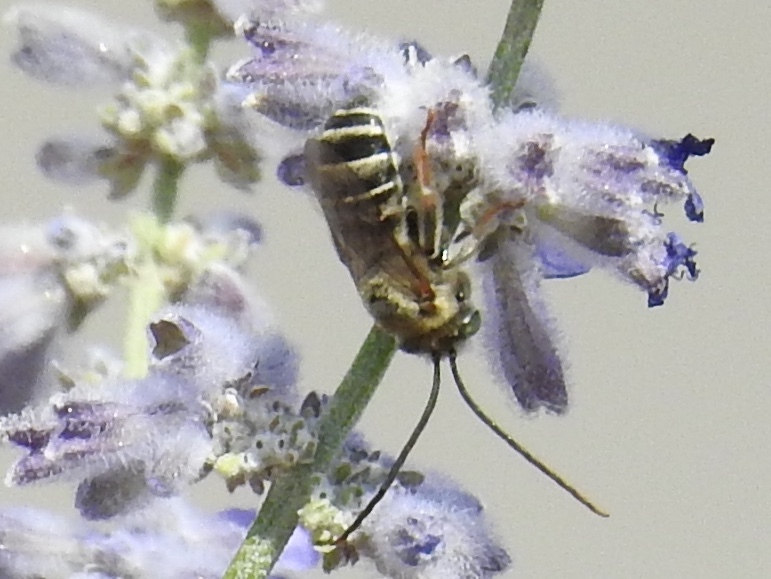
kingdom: Animalia
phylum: Arthropoda
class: Insecta
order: Hymenoptera
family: Apidae
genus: Apidae
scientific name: Apidae
